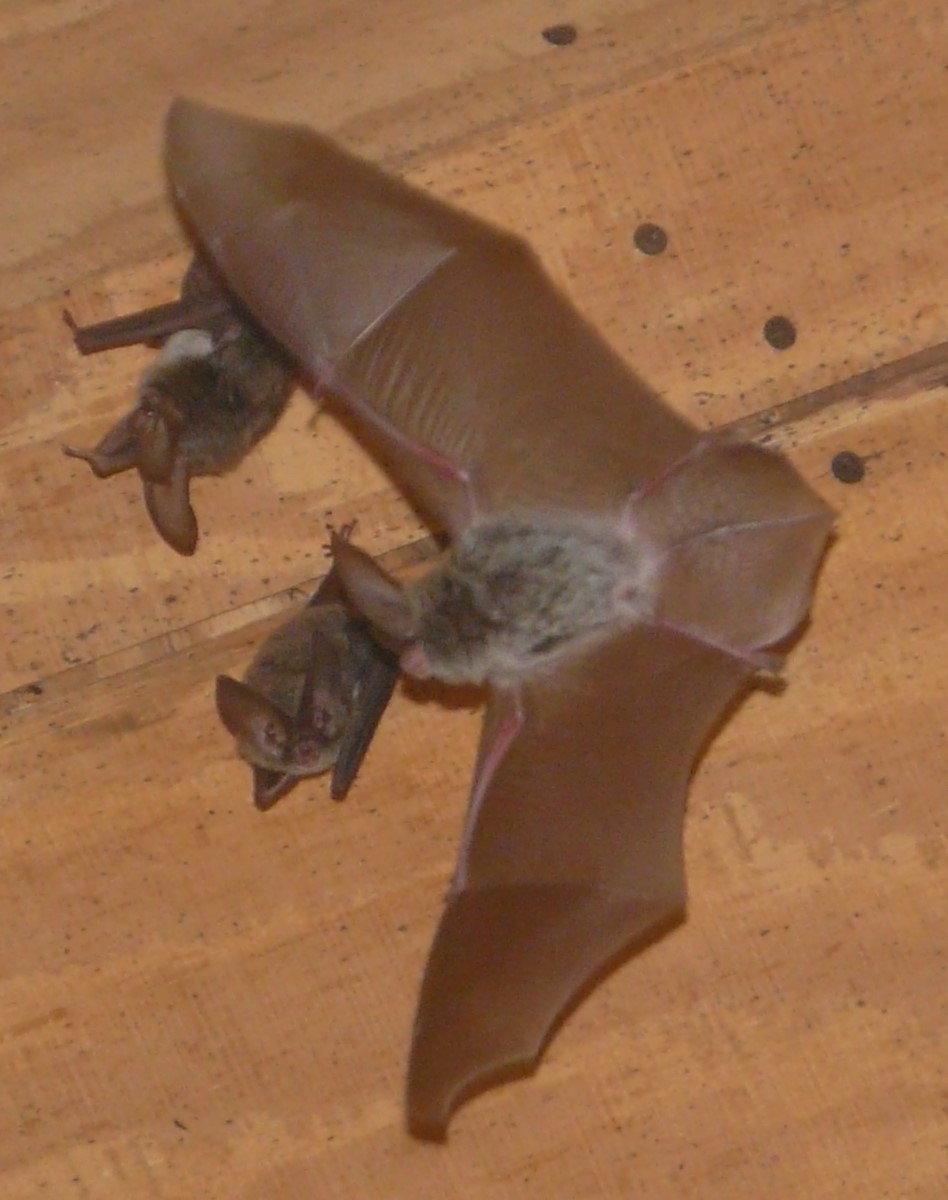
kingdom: Animalia
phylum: Chordata
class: Mammalia
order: Chiroptera
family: Vespertilionidae
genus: Corynorhinus
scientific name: Corynorhinus rafinesquii
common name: Rafinesque's big-eared bat
